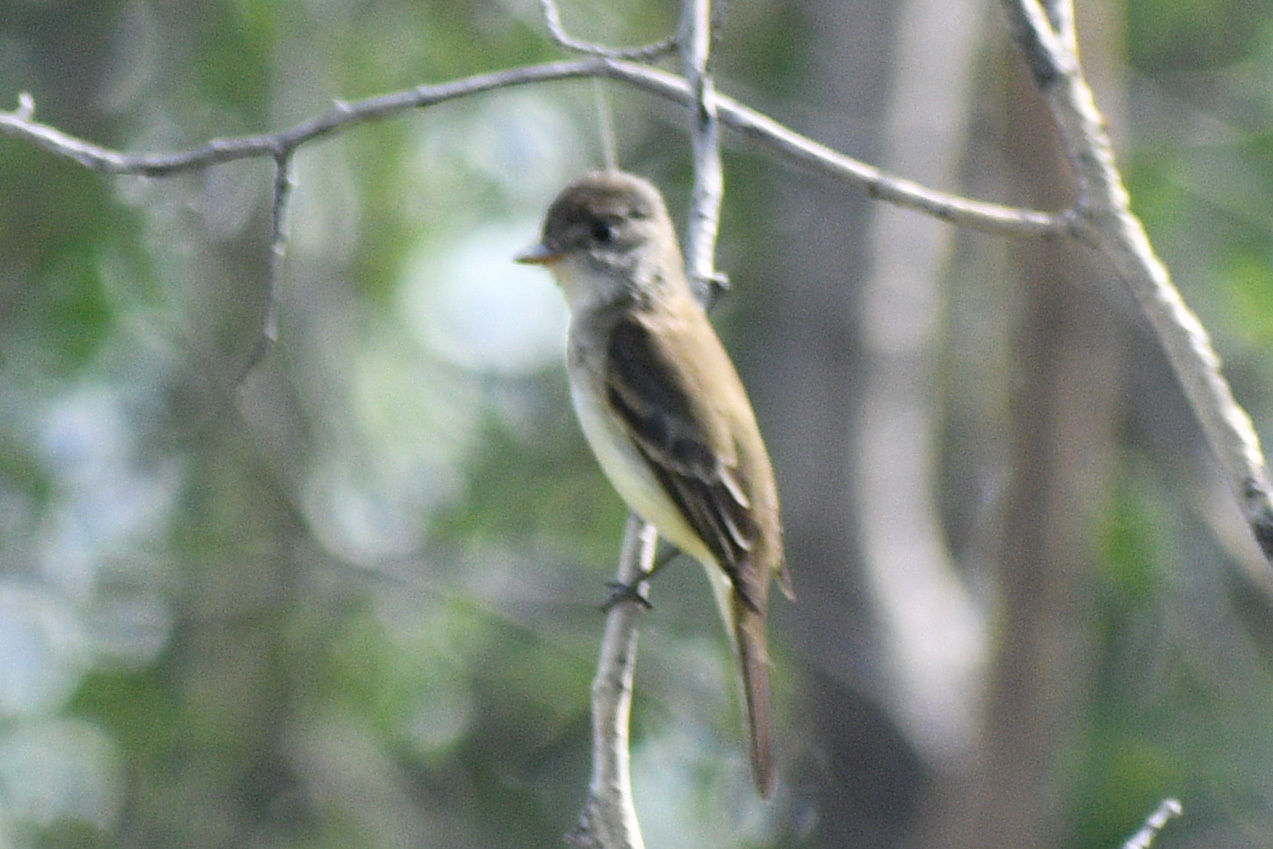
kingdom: Animalia
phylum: Chordata
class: Aves
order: Passeriformes
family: Tyrannidae
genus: Empidonax
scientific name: Empidonax traillii
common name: Willow flycatcher
